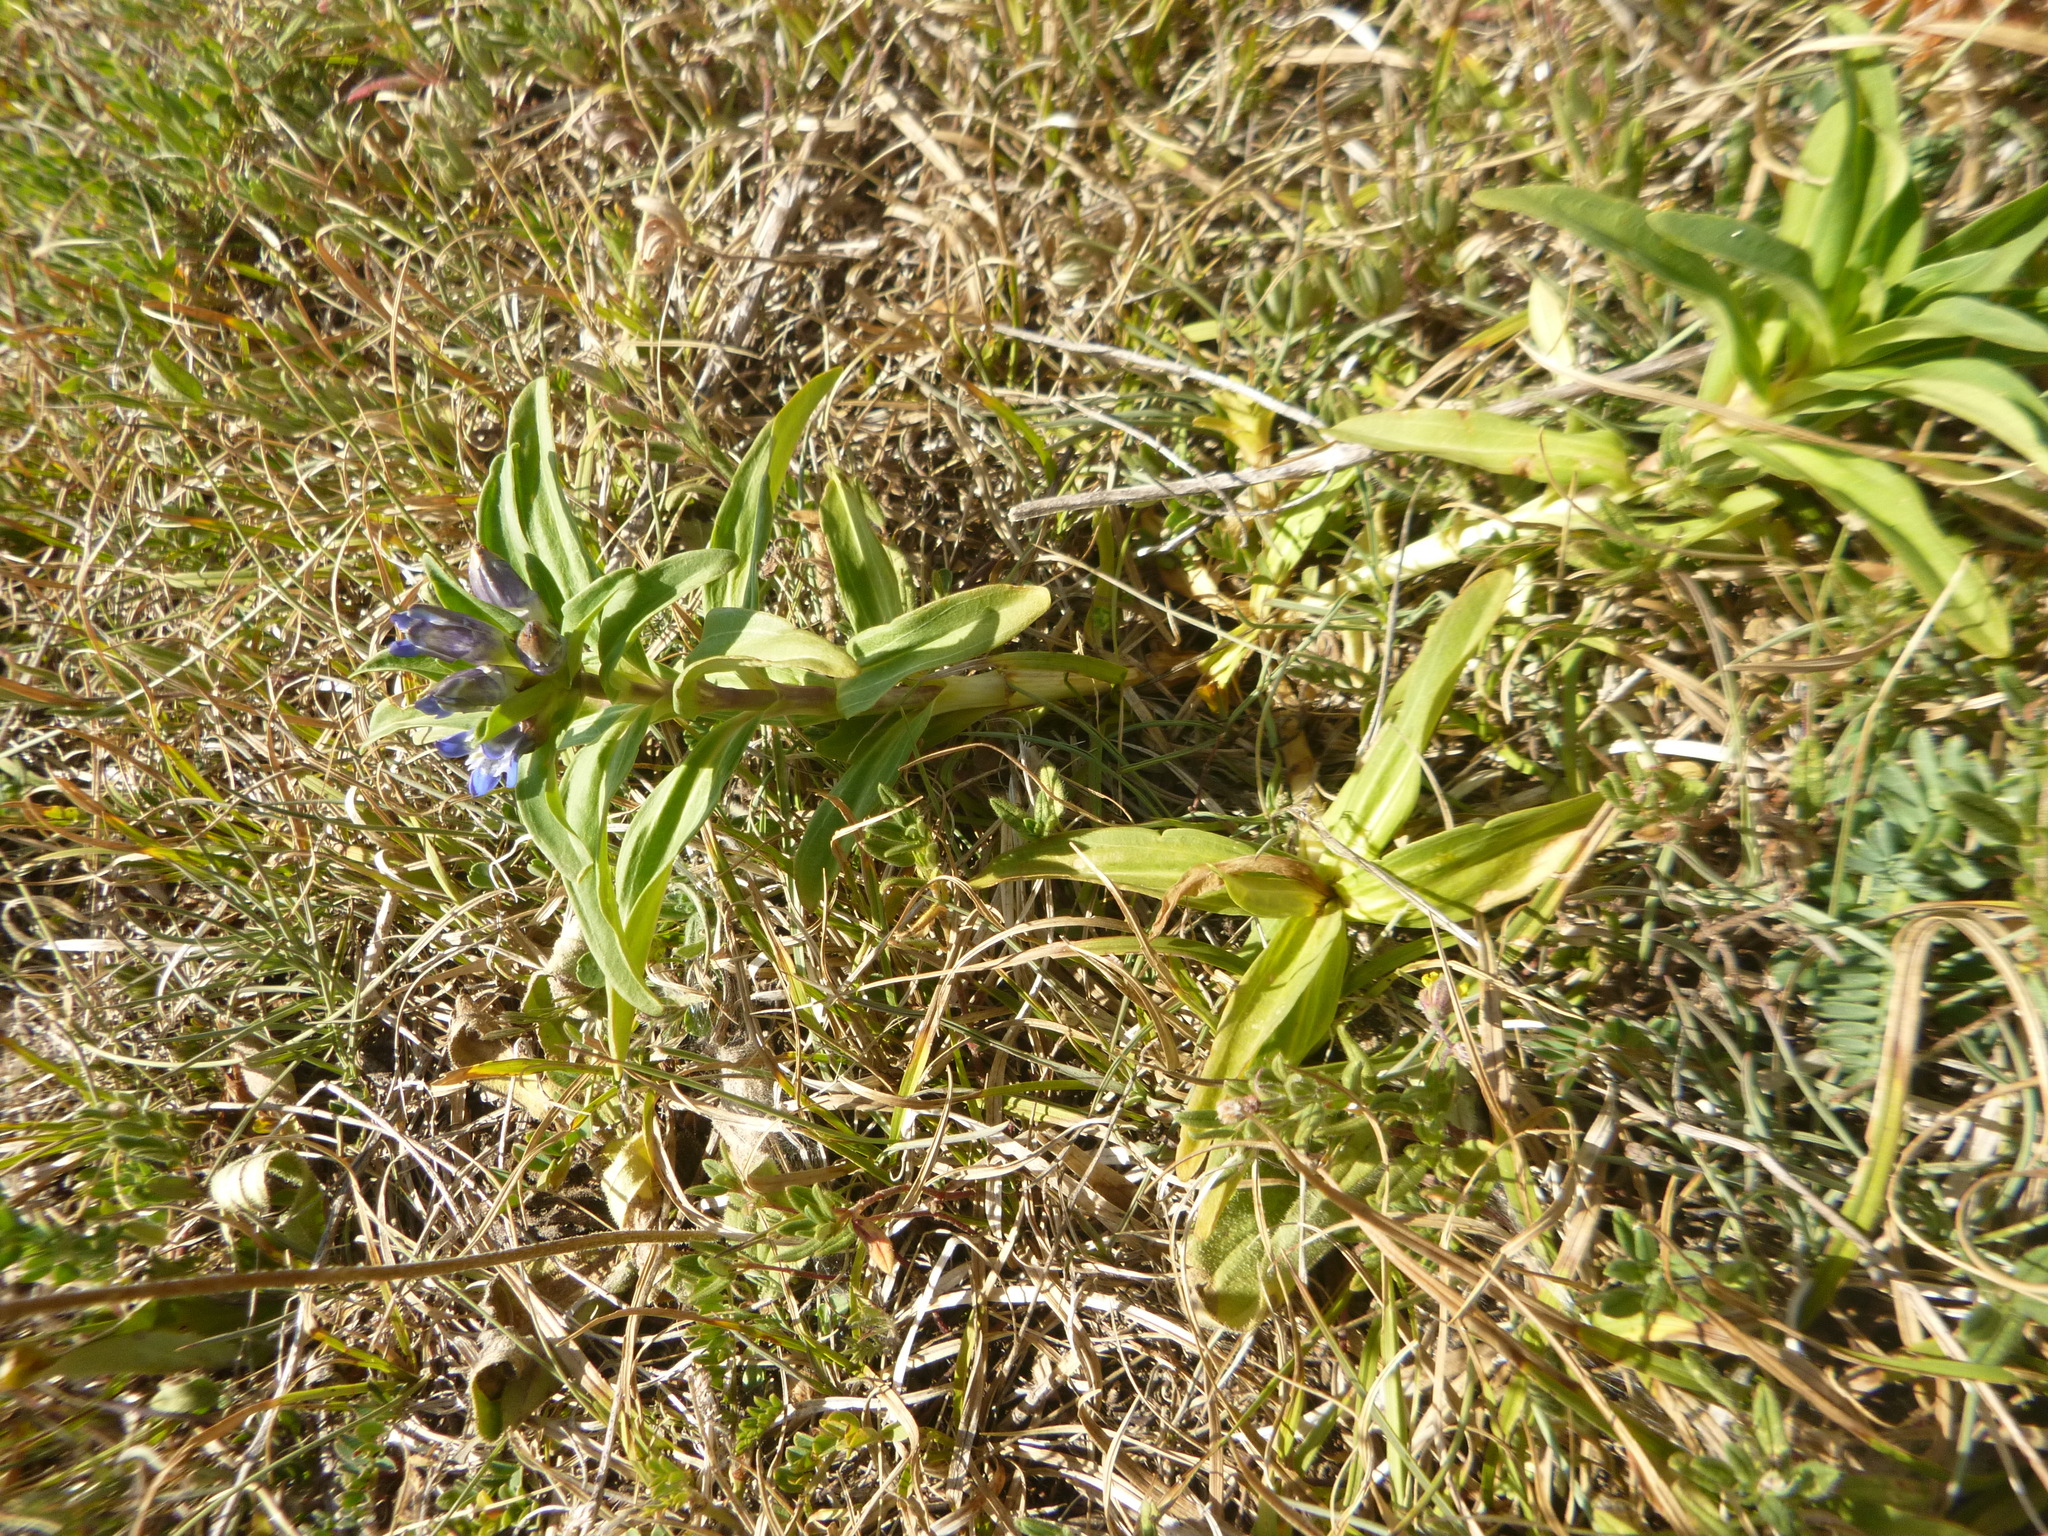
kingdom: Plantae
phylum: Tracheophyta
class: Magnoliopsida
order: Gentianales
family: Gentianaceae
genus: Gentiana
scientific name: Gentiana cruciata
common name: Cross gentian
